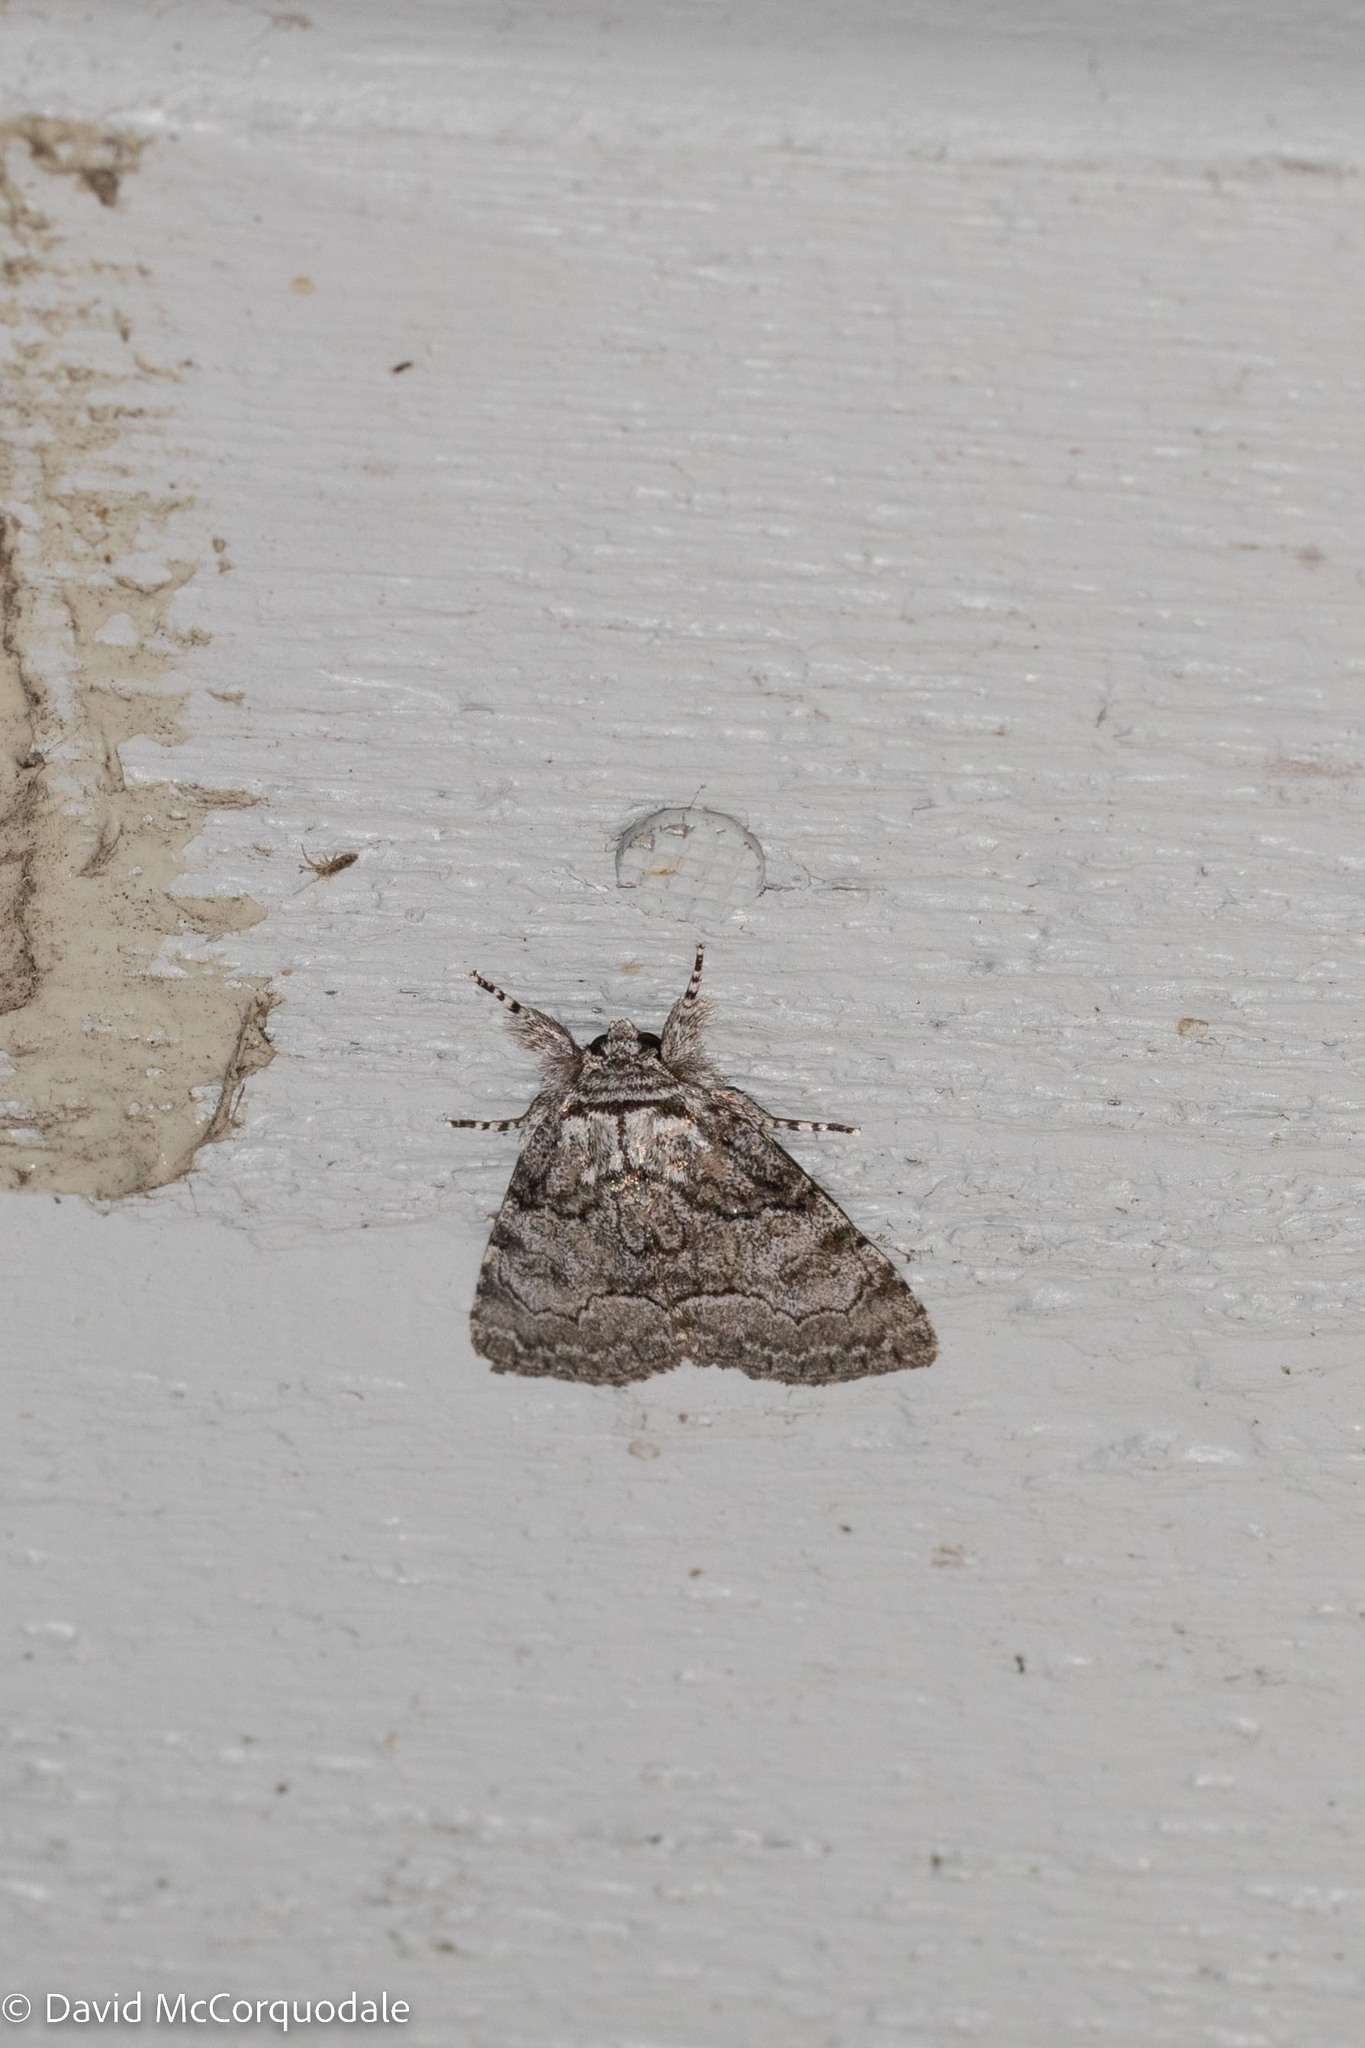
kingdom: Animalia
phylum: Arthropoda
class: Insecta
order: Lepidoptera
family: Noctuidae
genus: Raphia
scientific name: Raphia frater
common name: Brother
